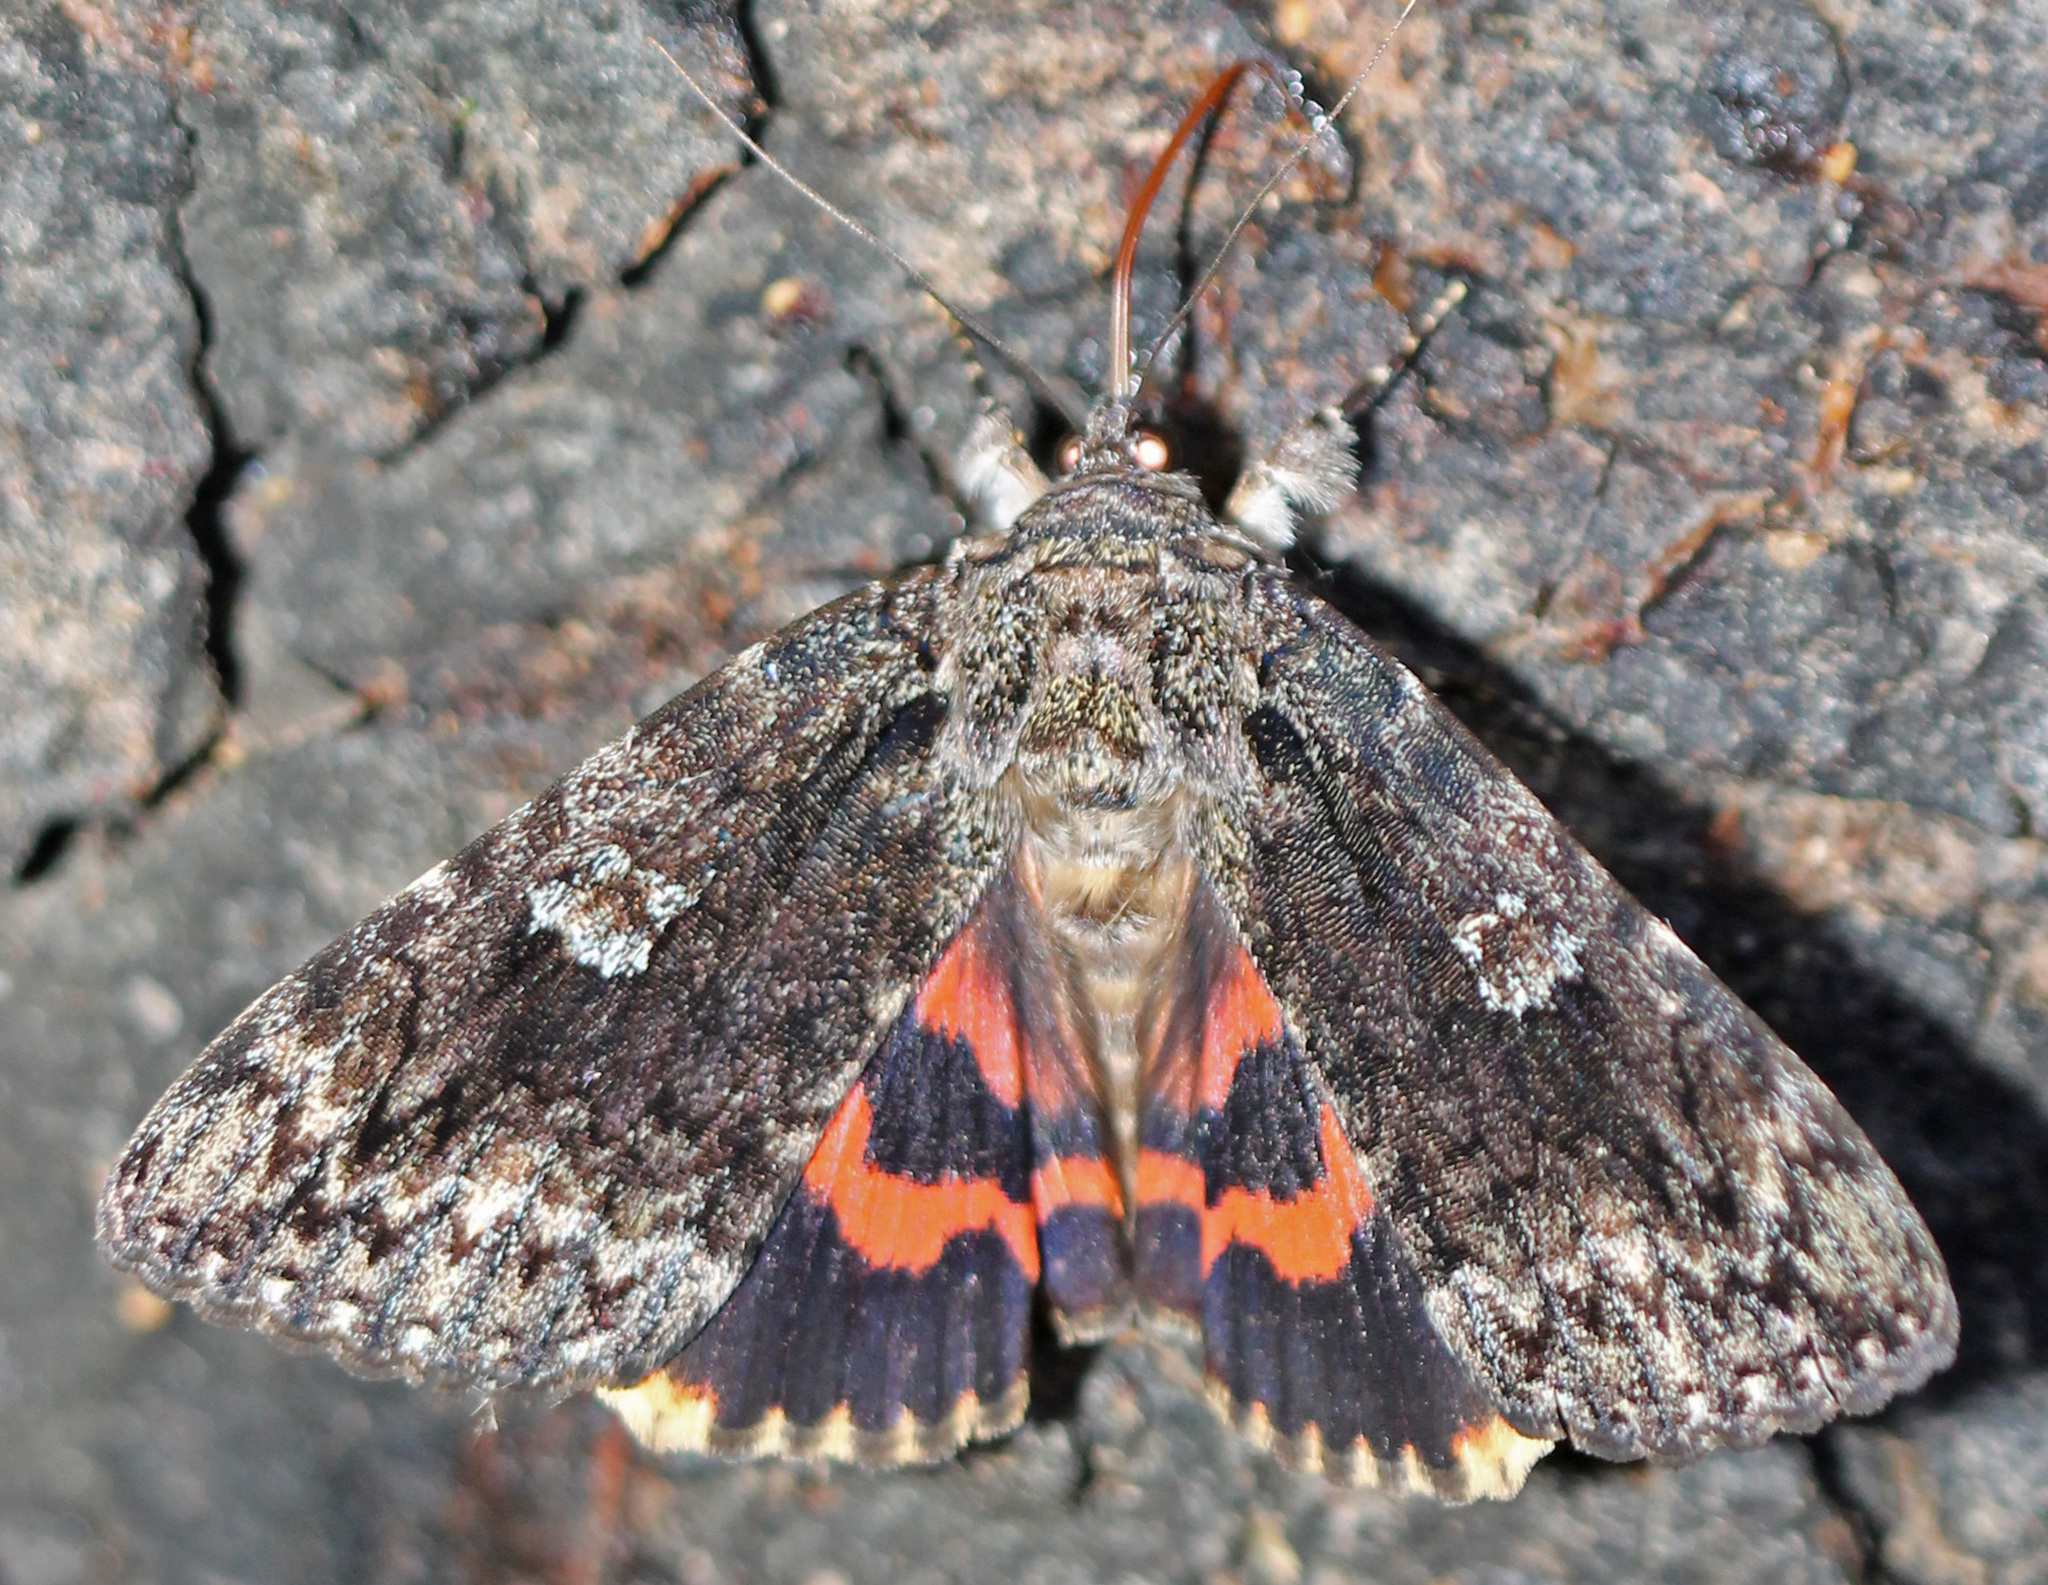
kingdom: Animalia
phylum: Arthropoda
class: Insecta
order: Lepidoptera
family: Erebidae
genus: Catocala
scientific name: Catocala ilia
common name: Ilia underwing
